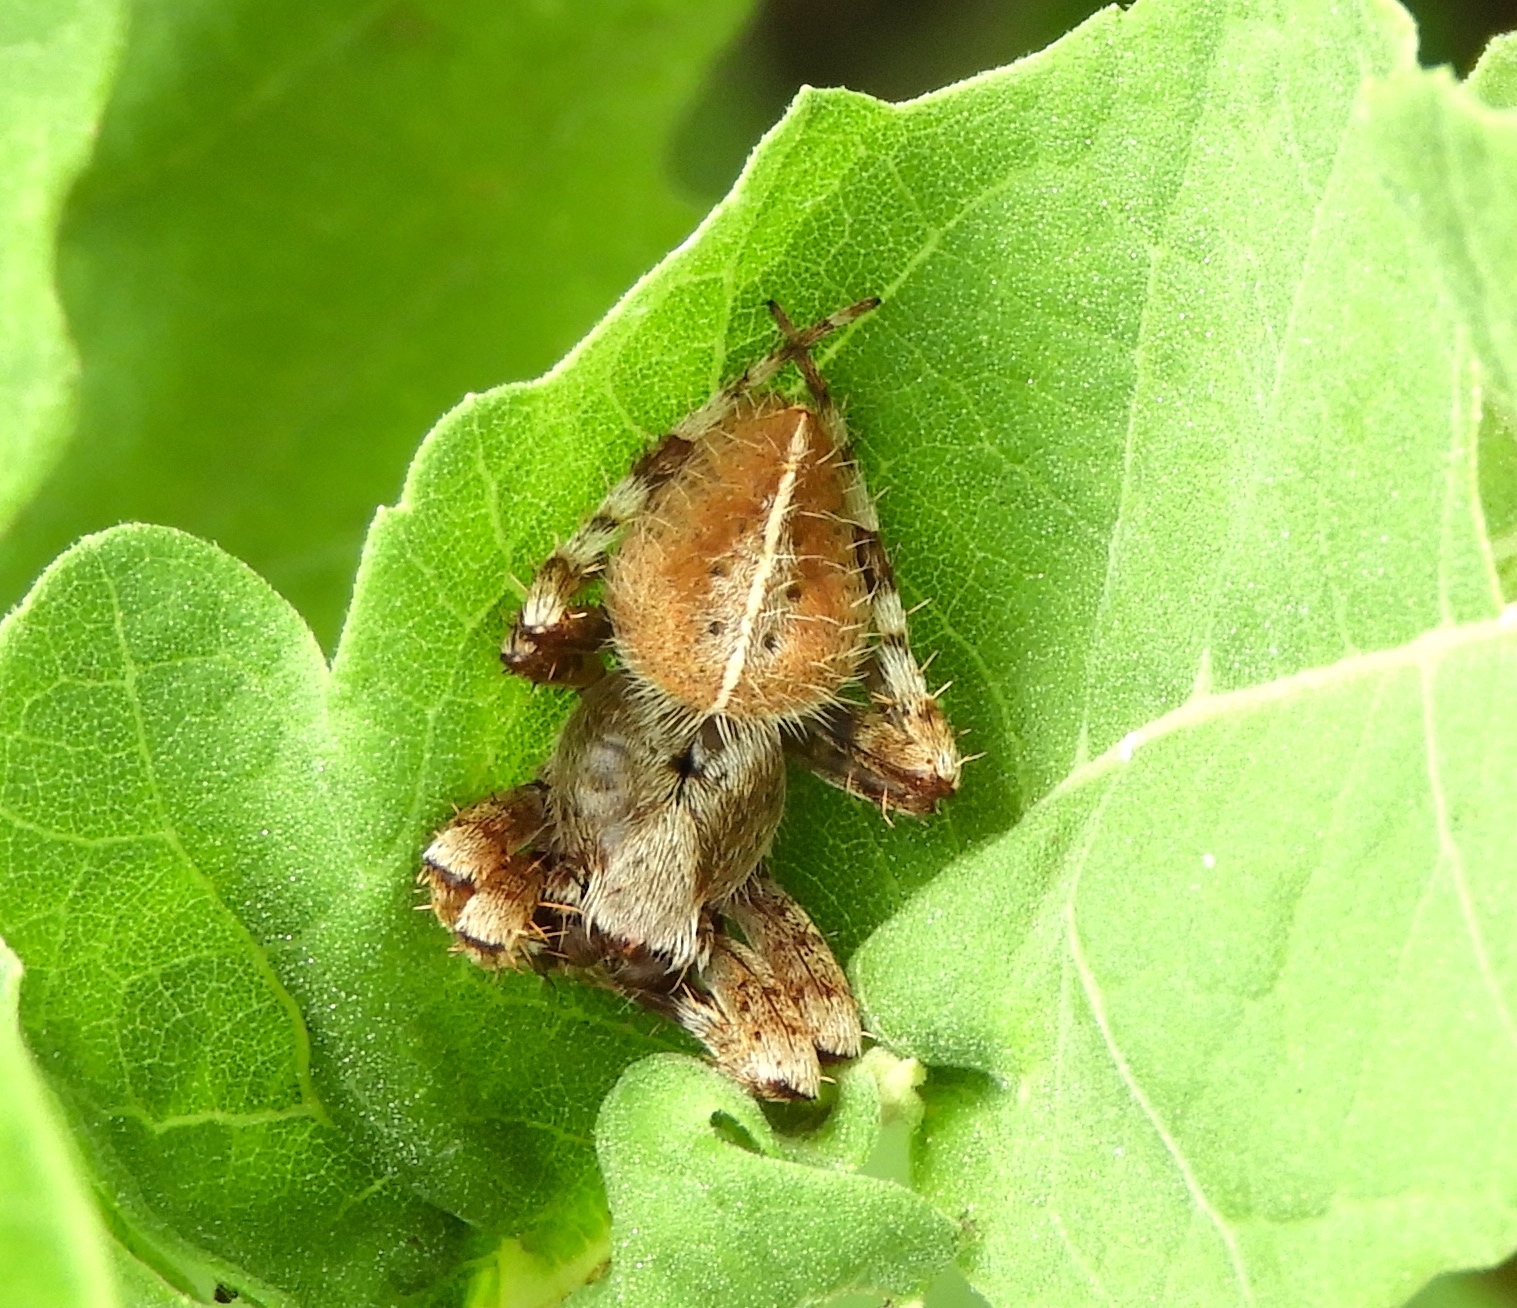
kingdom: Animalia
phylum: Arthropoda
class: Arachnida
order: Araneae
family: Araneidae
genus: Eriophora
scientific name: Eriophora edax
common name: Orb weavers
